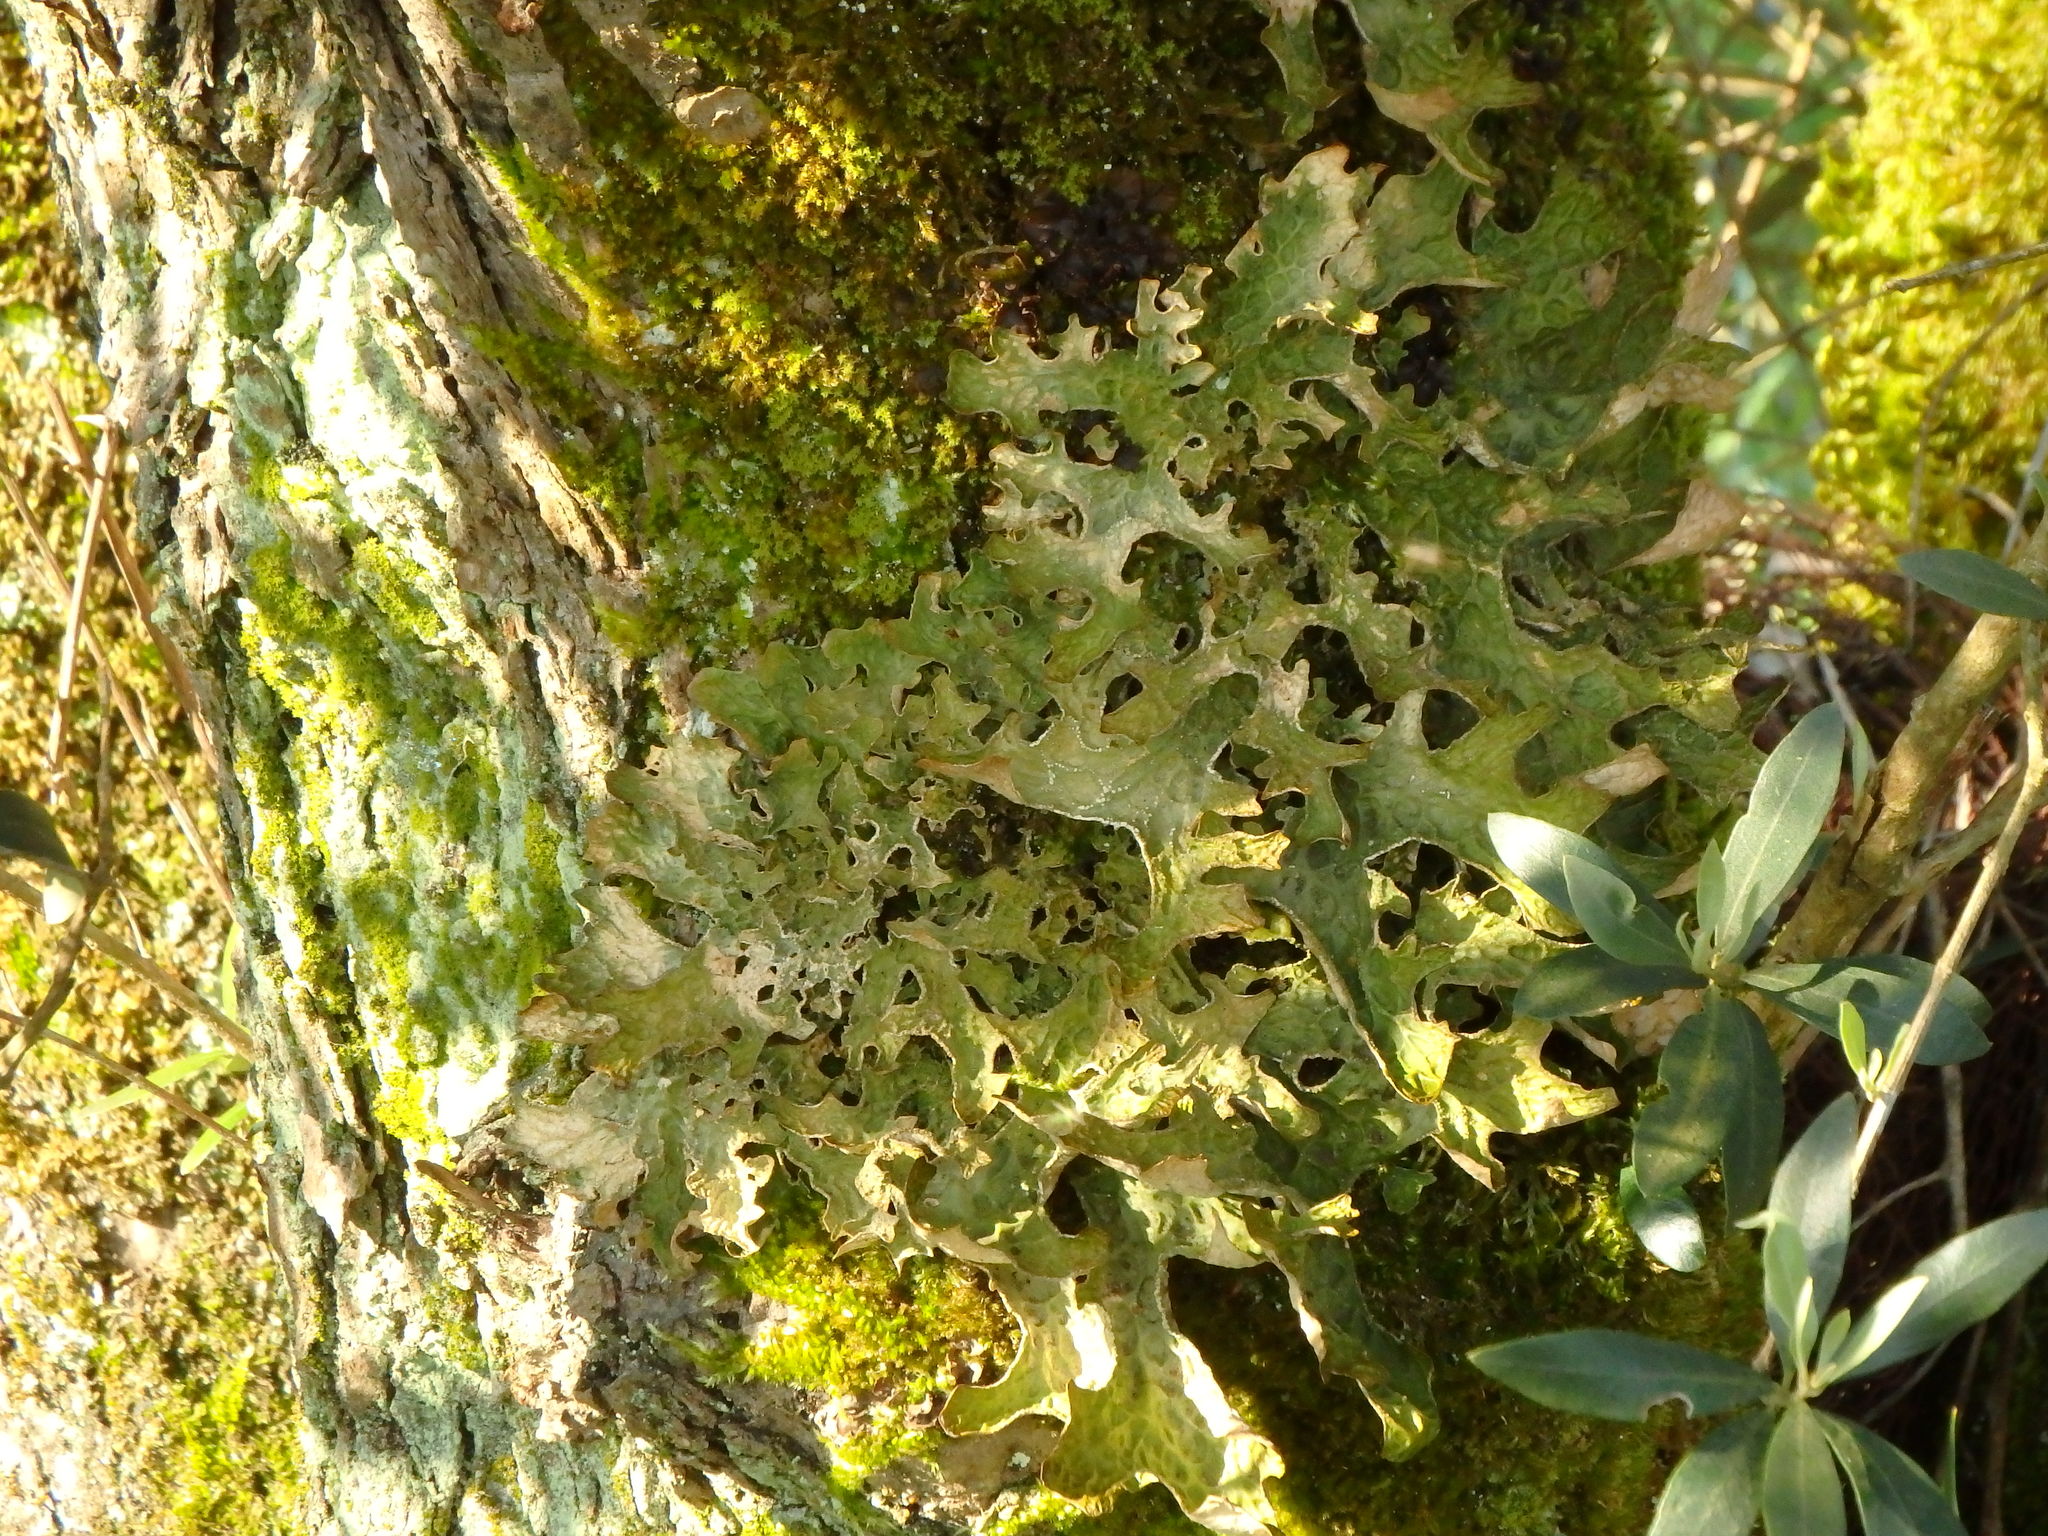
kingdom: Fungi
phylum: Ascomycota
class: Lecanoromycetes
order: Peltigerales
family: Lobariaceae
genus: Lobaria
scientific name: Lobaria pulmonaria
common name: Lungwort
